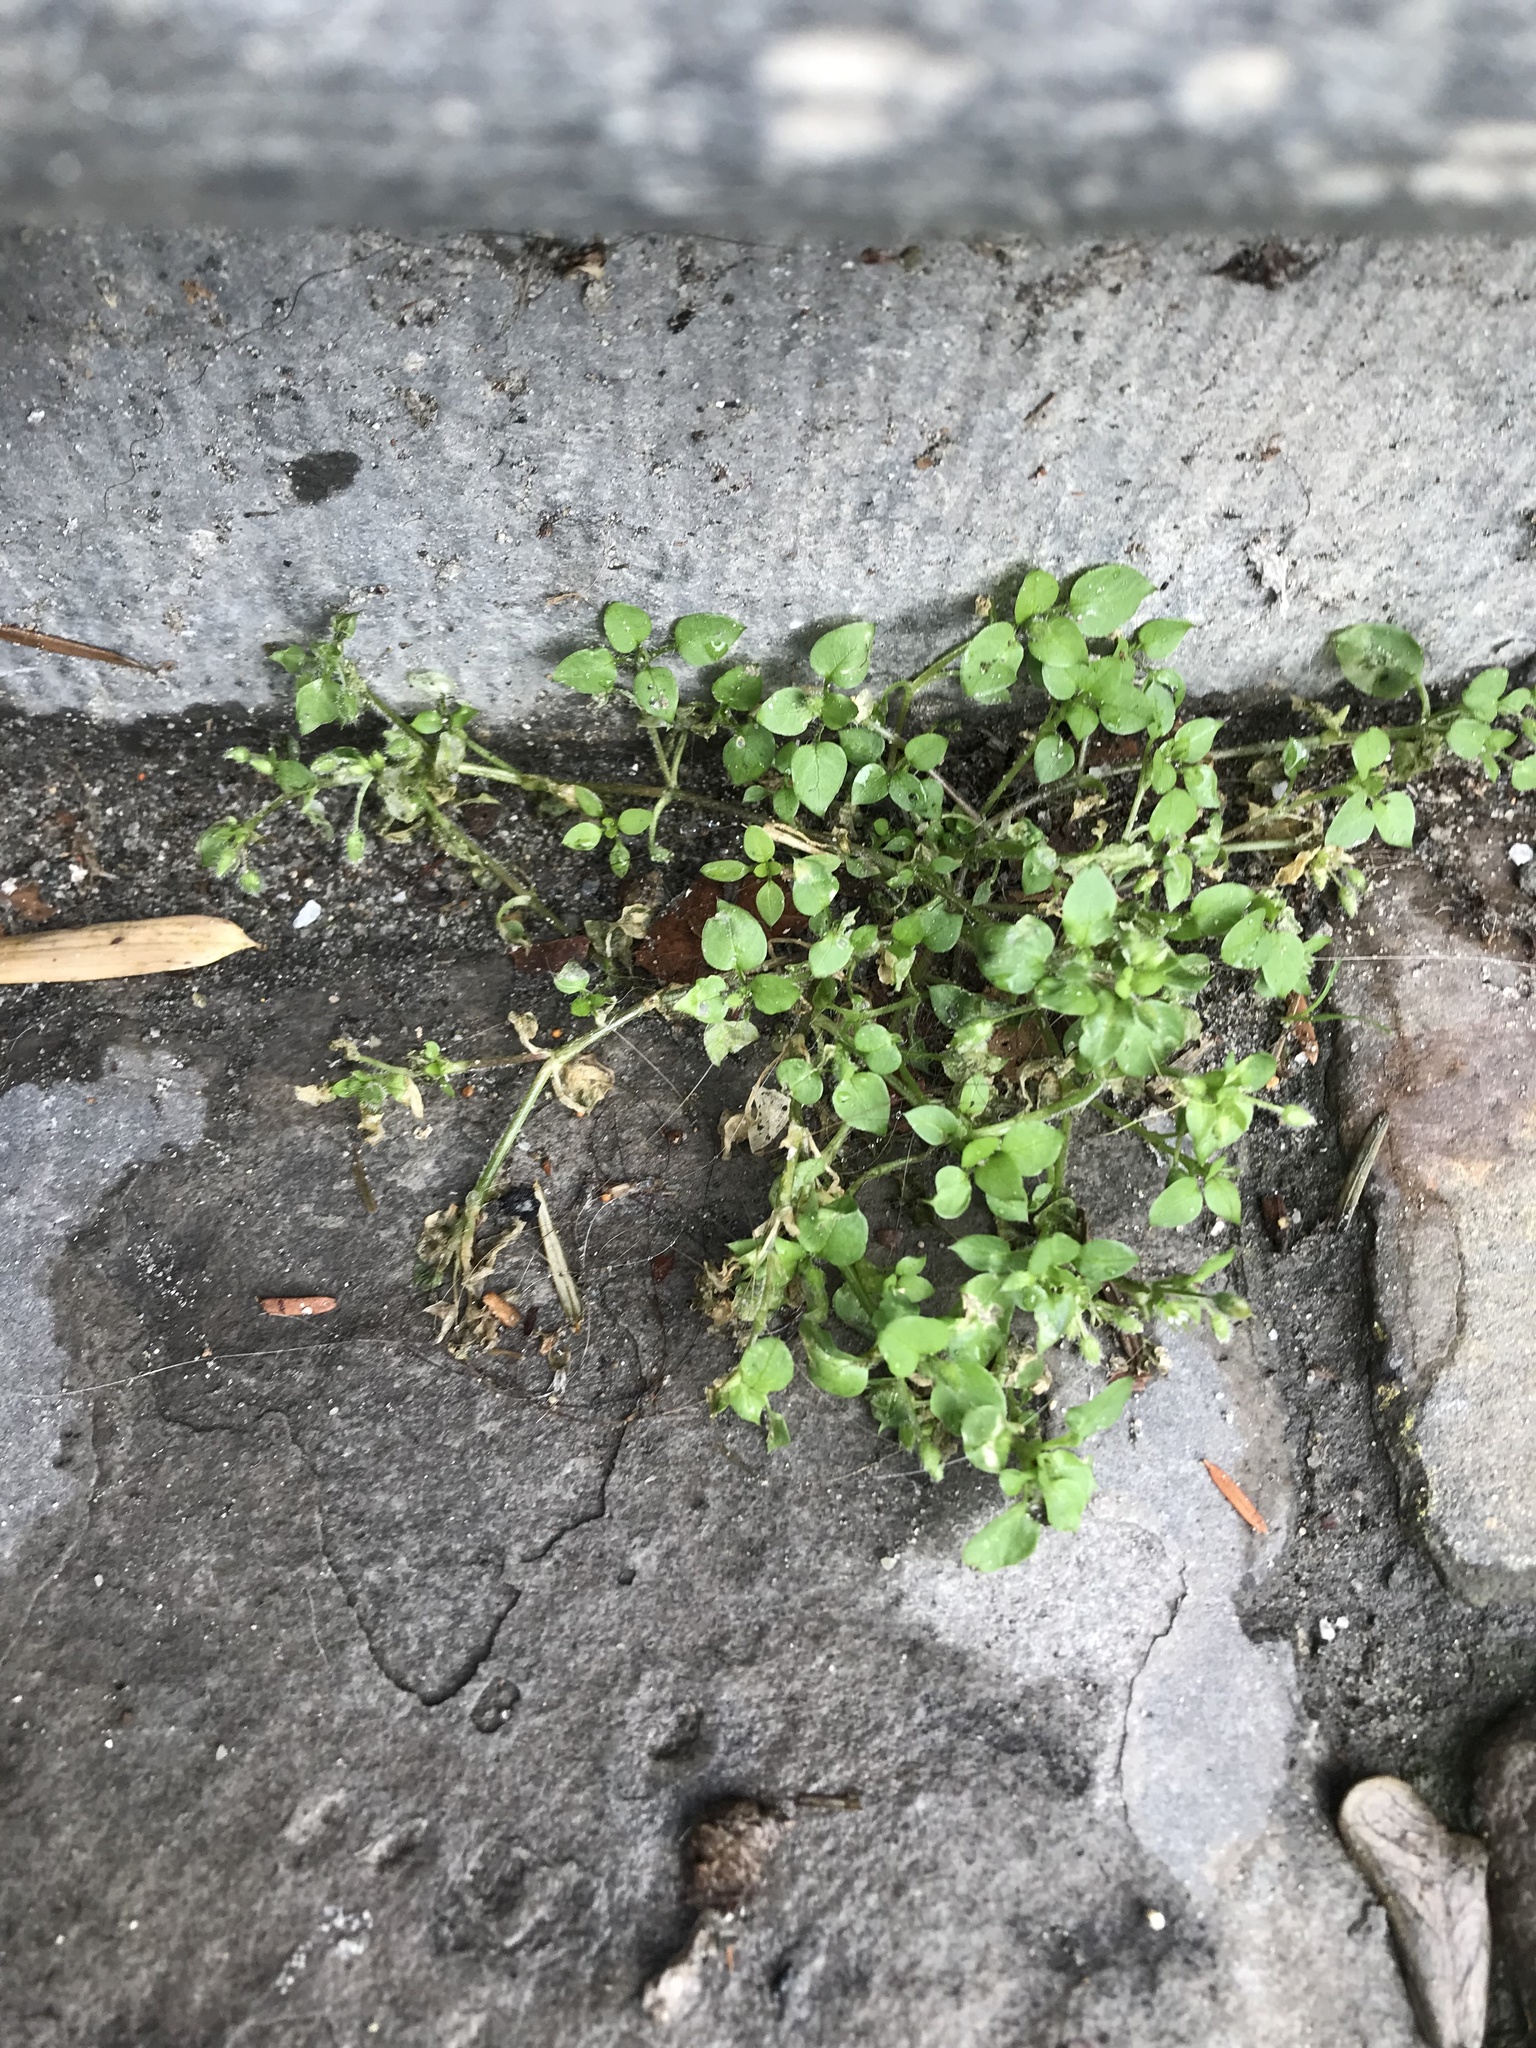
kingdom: Plantae
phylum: Tracheophyta
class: Magnoliopsida
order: Caryophyllales
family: Caryophyllaceae
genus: Stellaria
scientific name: Stellaria media
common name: Common chickweed
